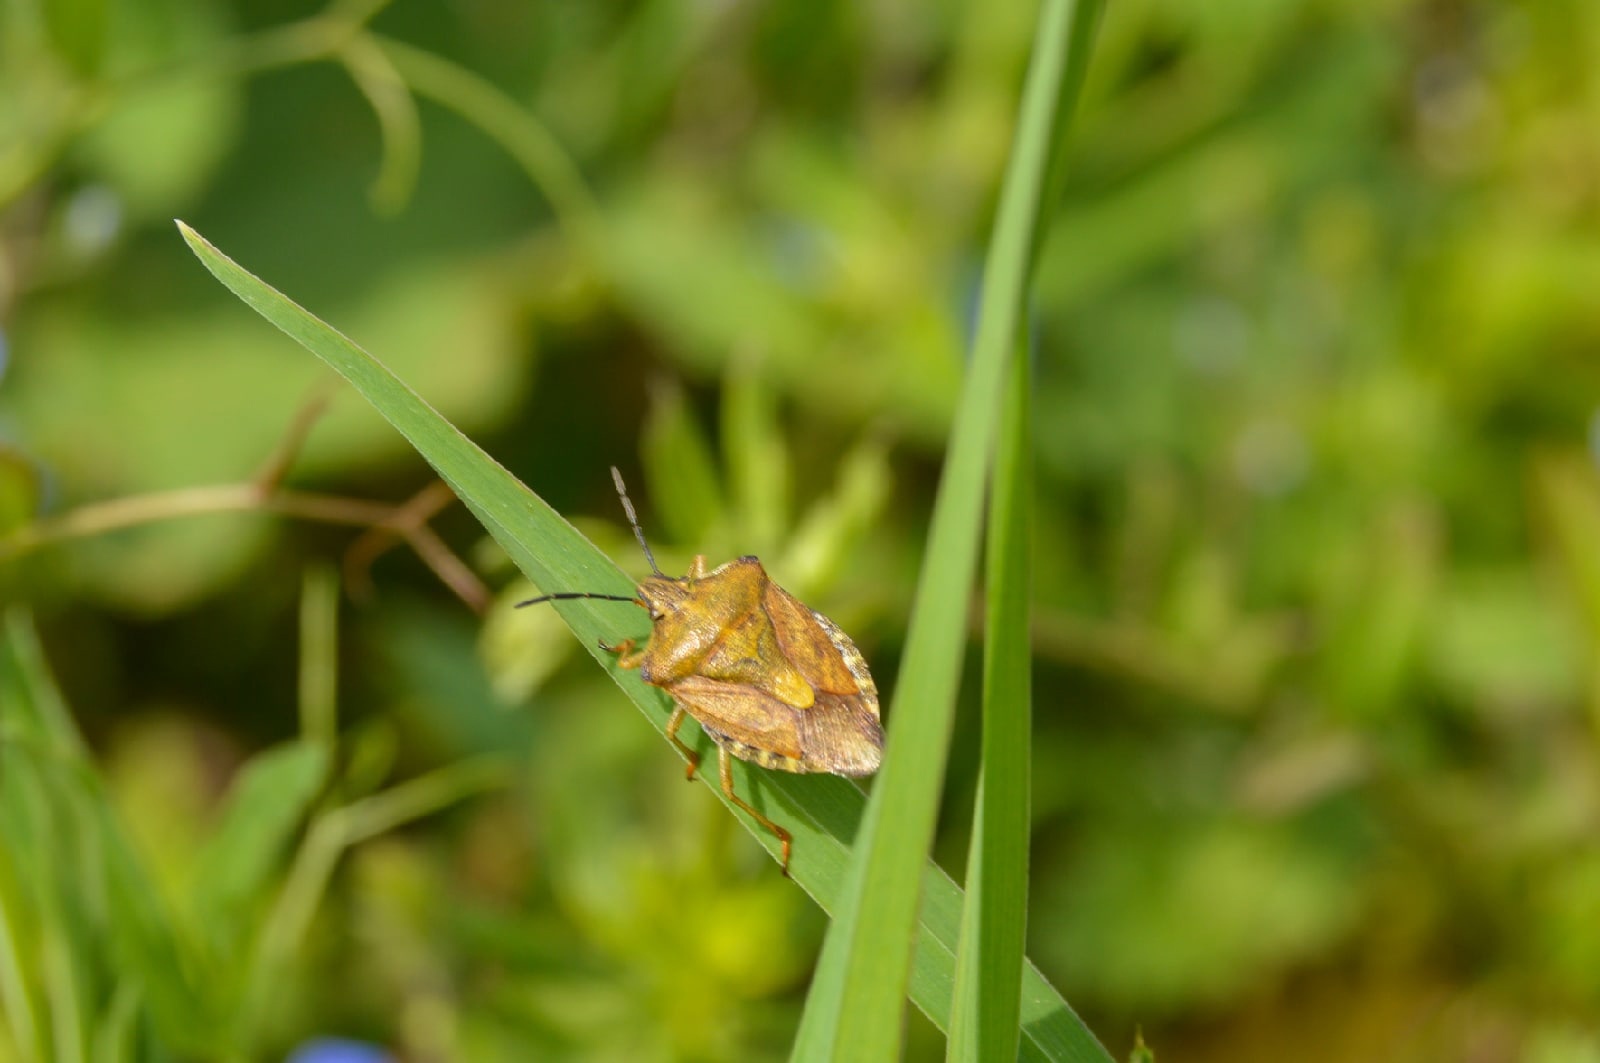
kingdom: Animalia
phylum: Arthropoda
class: Insecta
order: Hemiptera
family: Pentatomidae
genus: Carpocoris
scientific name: Carpocoris purpureipennis
